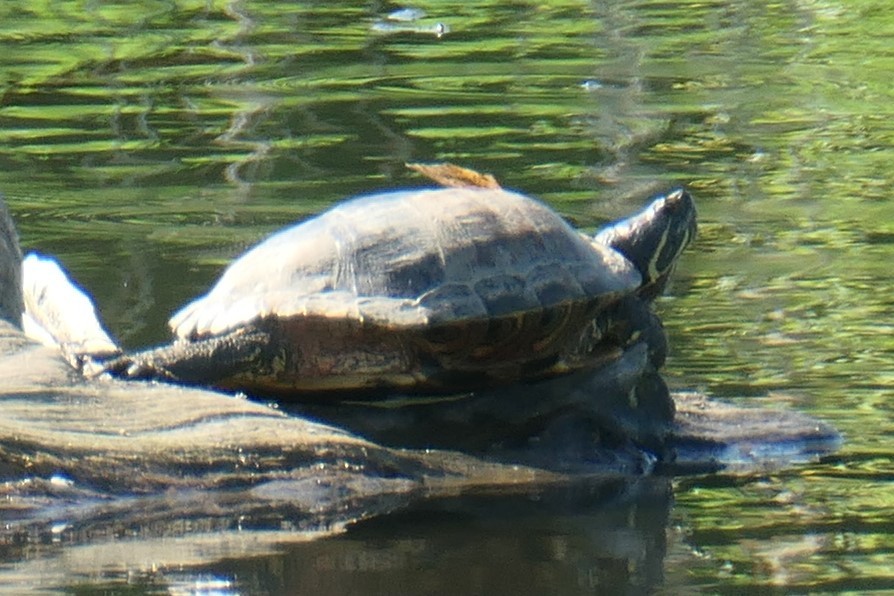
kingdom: Animalia
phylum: Chordata
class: Testudines
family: Emydidae
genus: Trachemys
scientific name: Trachemys scripta
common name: Slider
